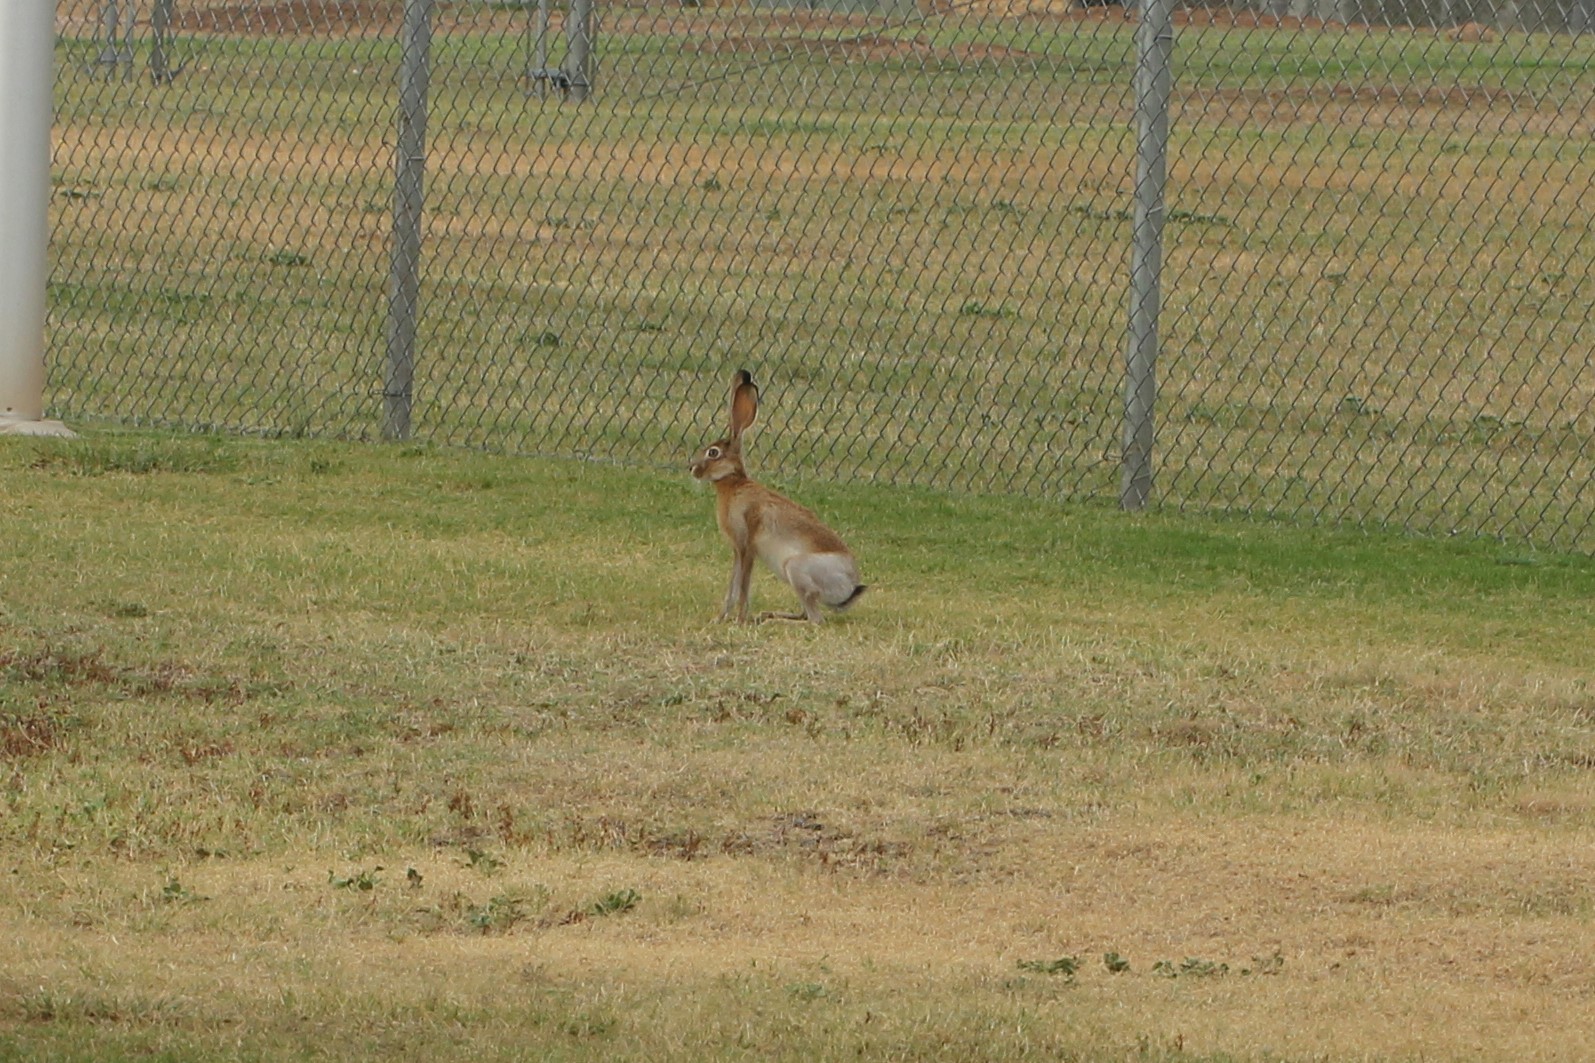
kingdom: Animalia
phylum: Chordata
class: Mammalia
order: Lagomorpha
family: Leporidae
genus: Lepus
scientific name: Lepus californicus
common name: Black-tailed jackrabbit
